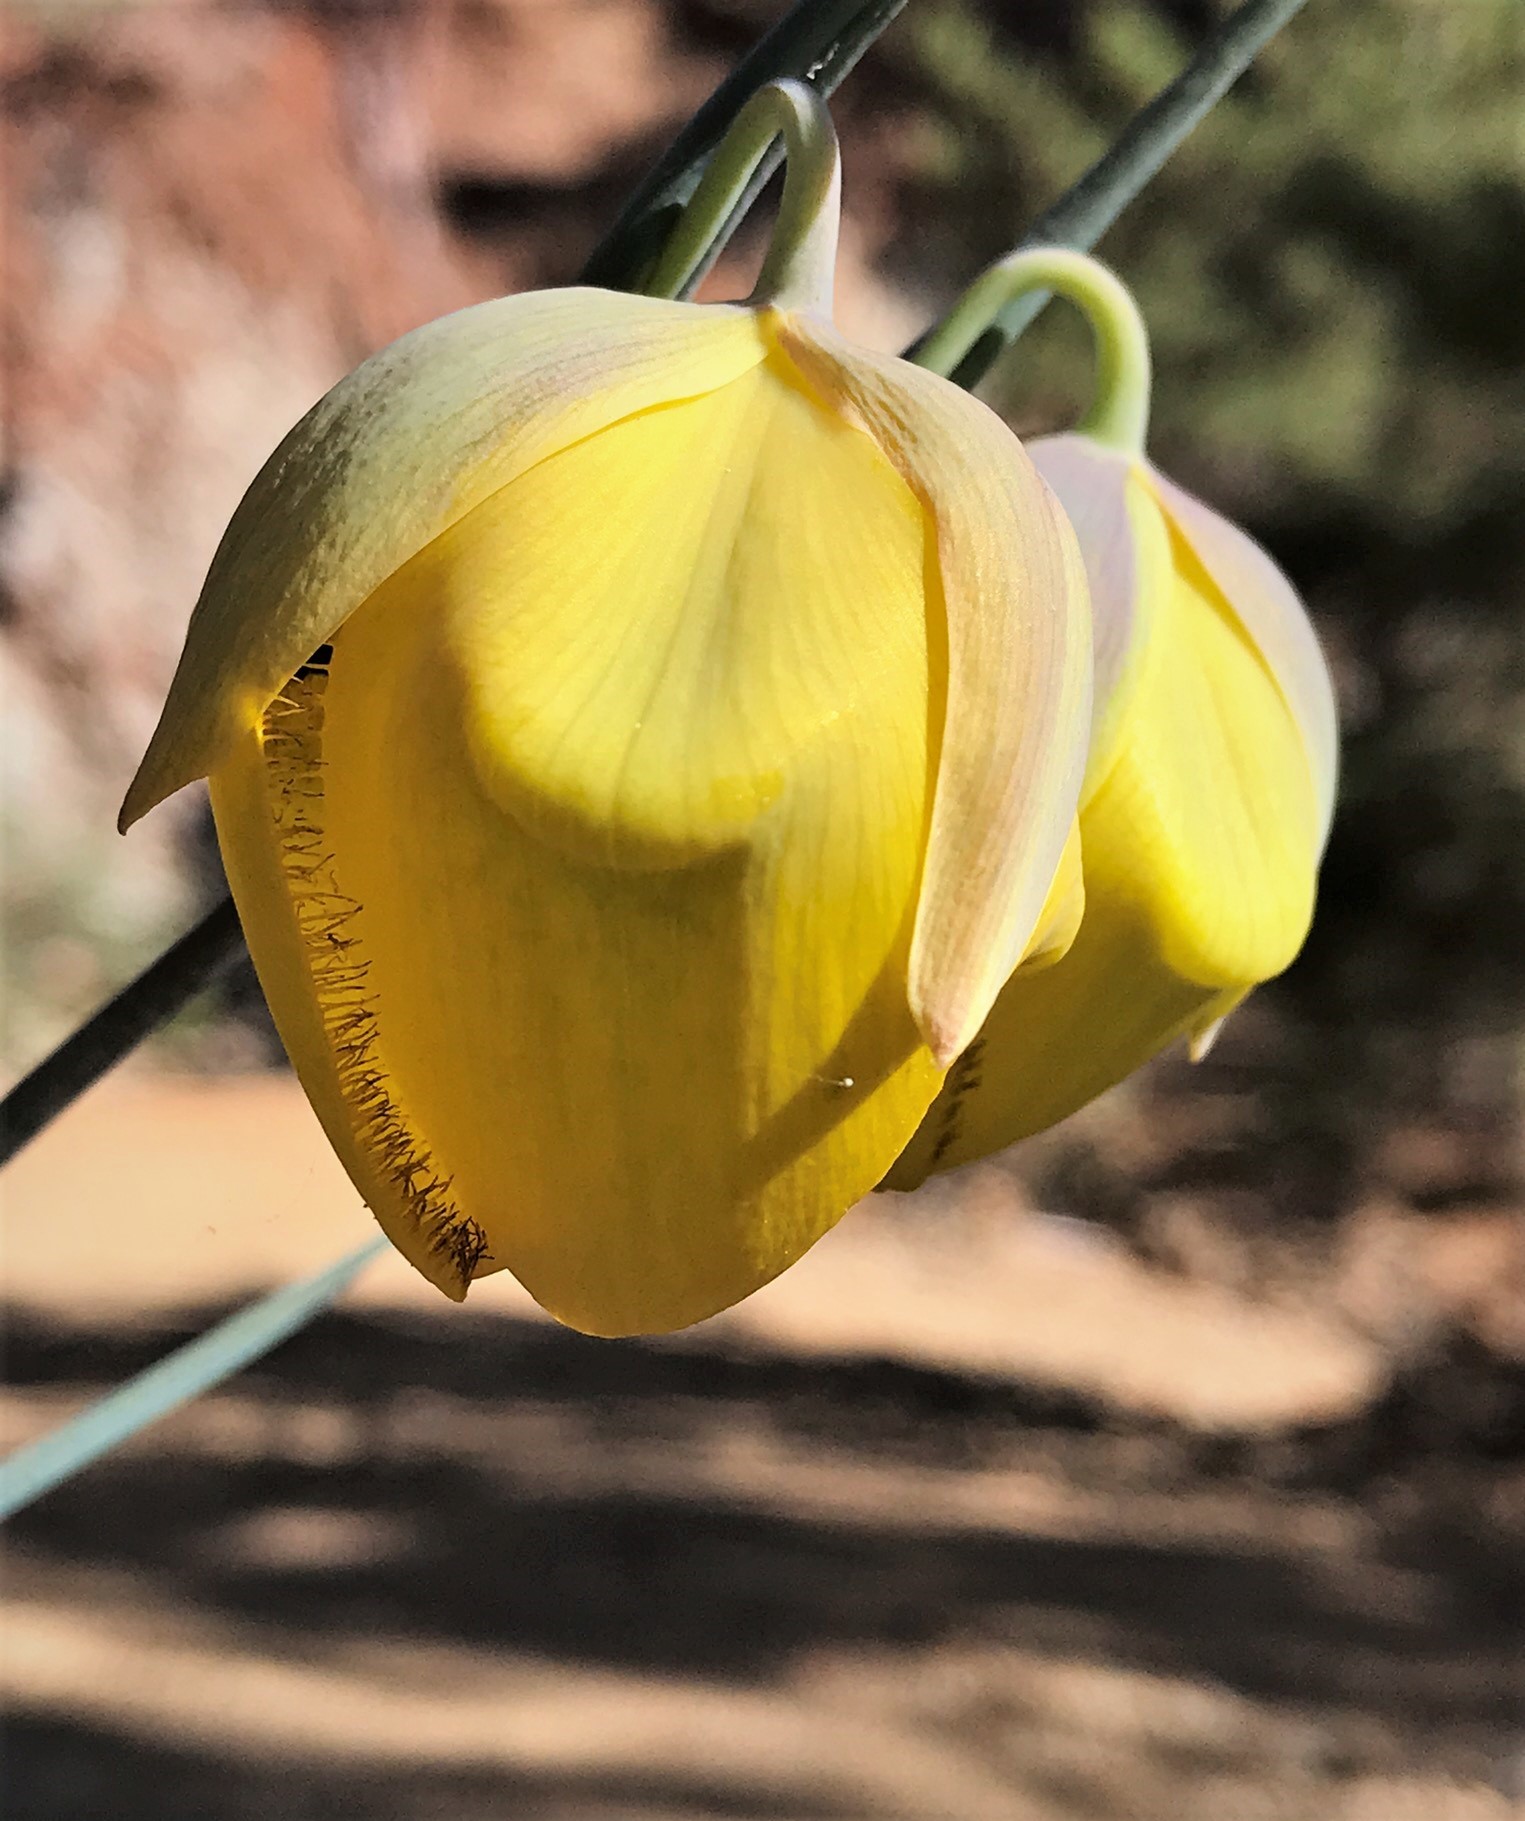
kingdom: Plantae
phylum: Tracheophyta
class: Liliopsida
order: Liliales
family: Liliaceae
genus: Calochortus
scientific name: Calochortus raichei
